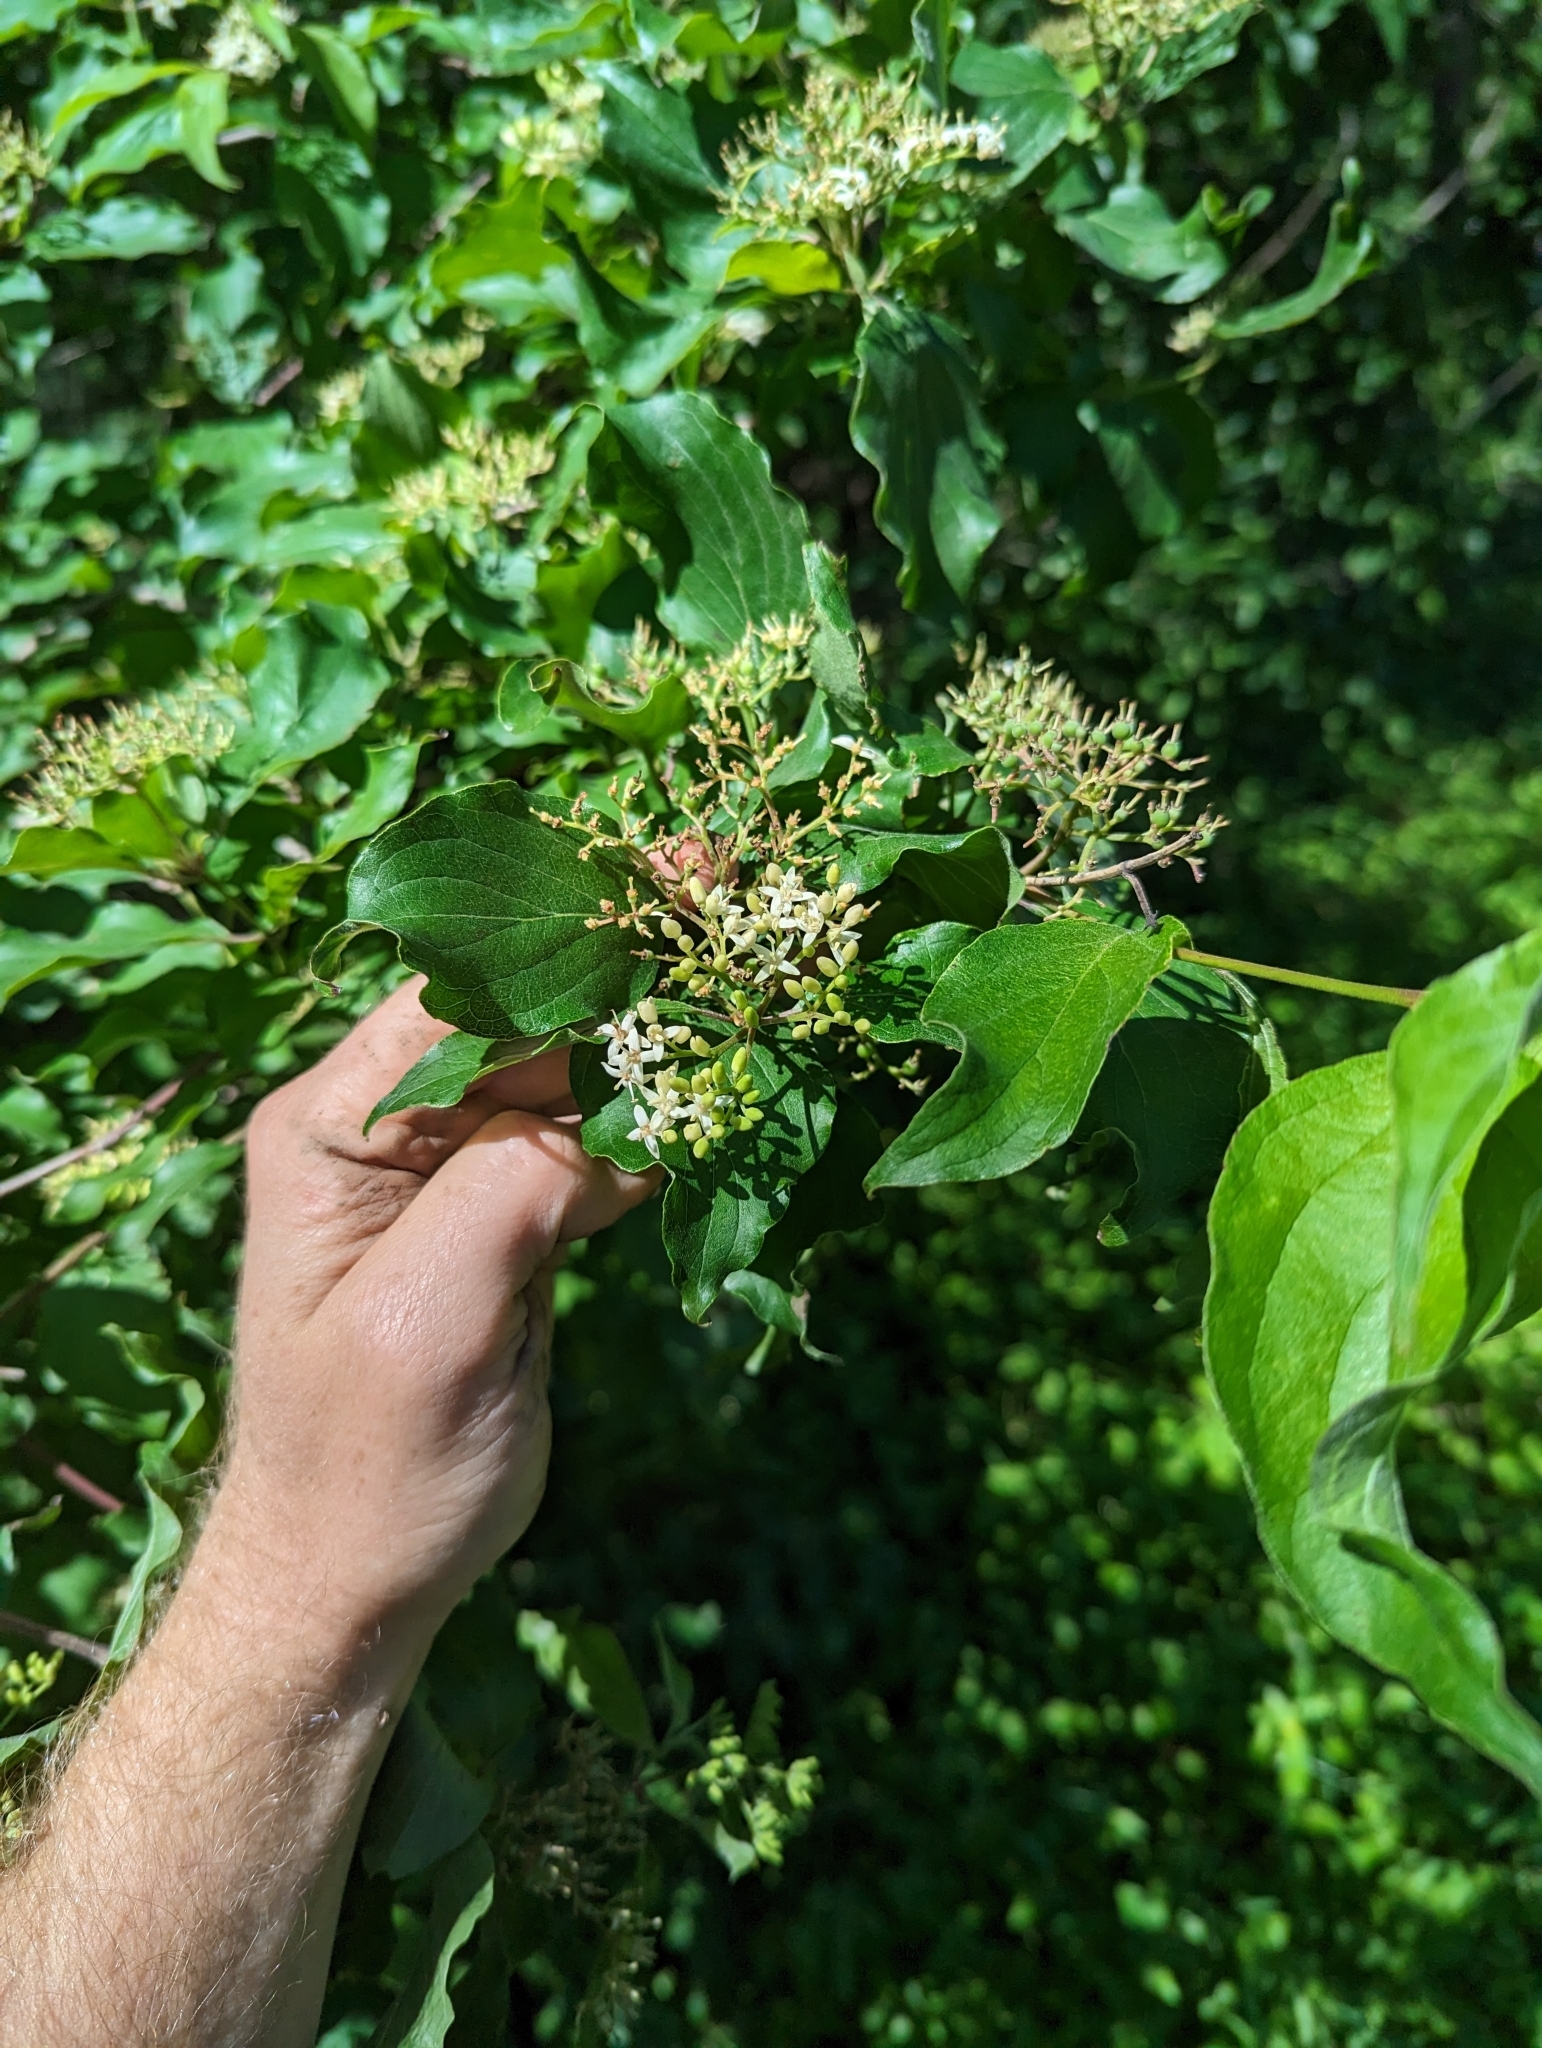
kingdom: Plantae
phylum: Tracheophyta
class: Magnoliopsida
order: Cornales
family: Cornaceae
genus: Cornus
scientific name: Cornus drummondii
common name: Rough-leaf dogwood
